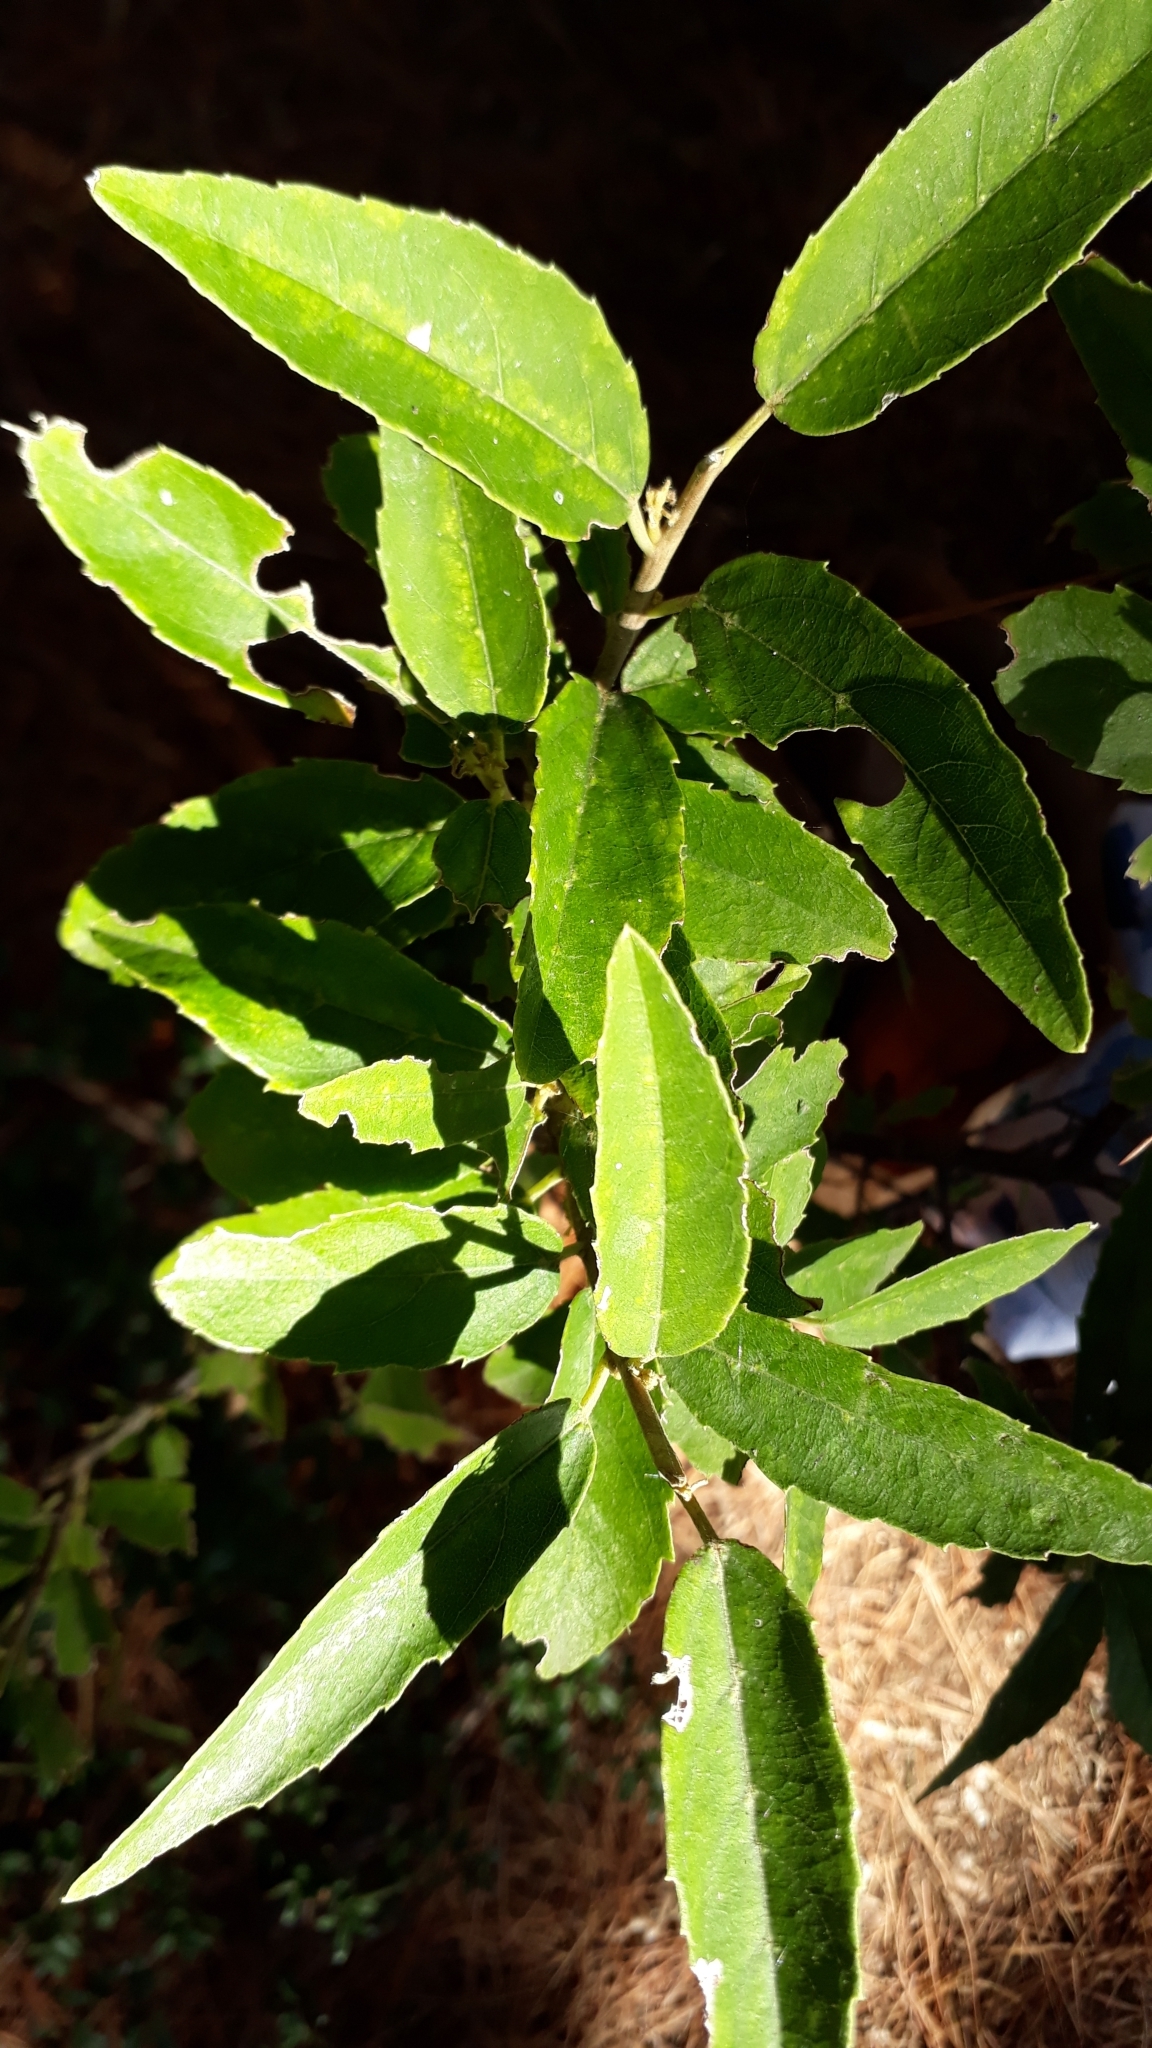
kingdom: Plantae
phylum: Tracheophyta
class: Magnoliopsida
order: Malpighiales
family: Achariaceae
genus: Kiggelaria
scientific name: Kiggelaria africana
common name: Wild peach
